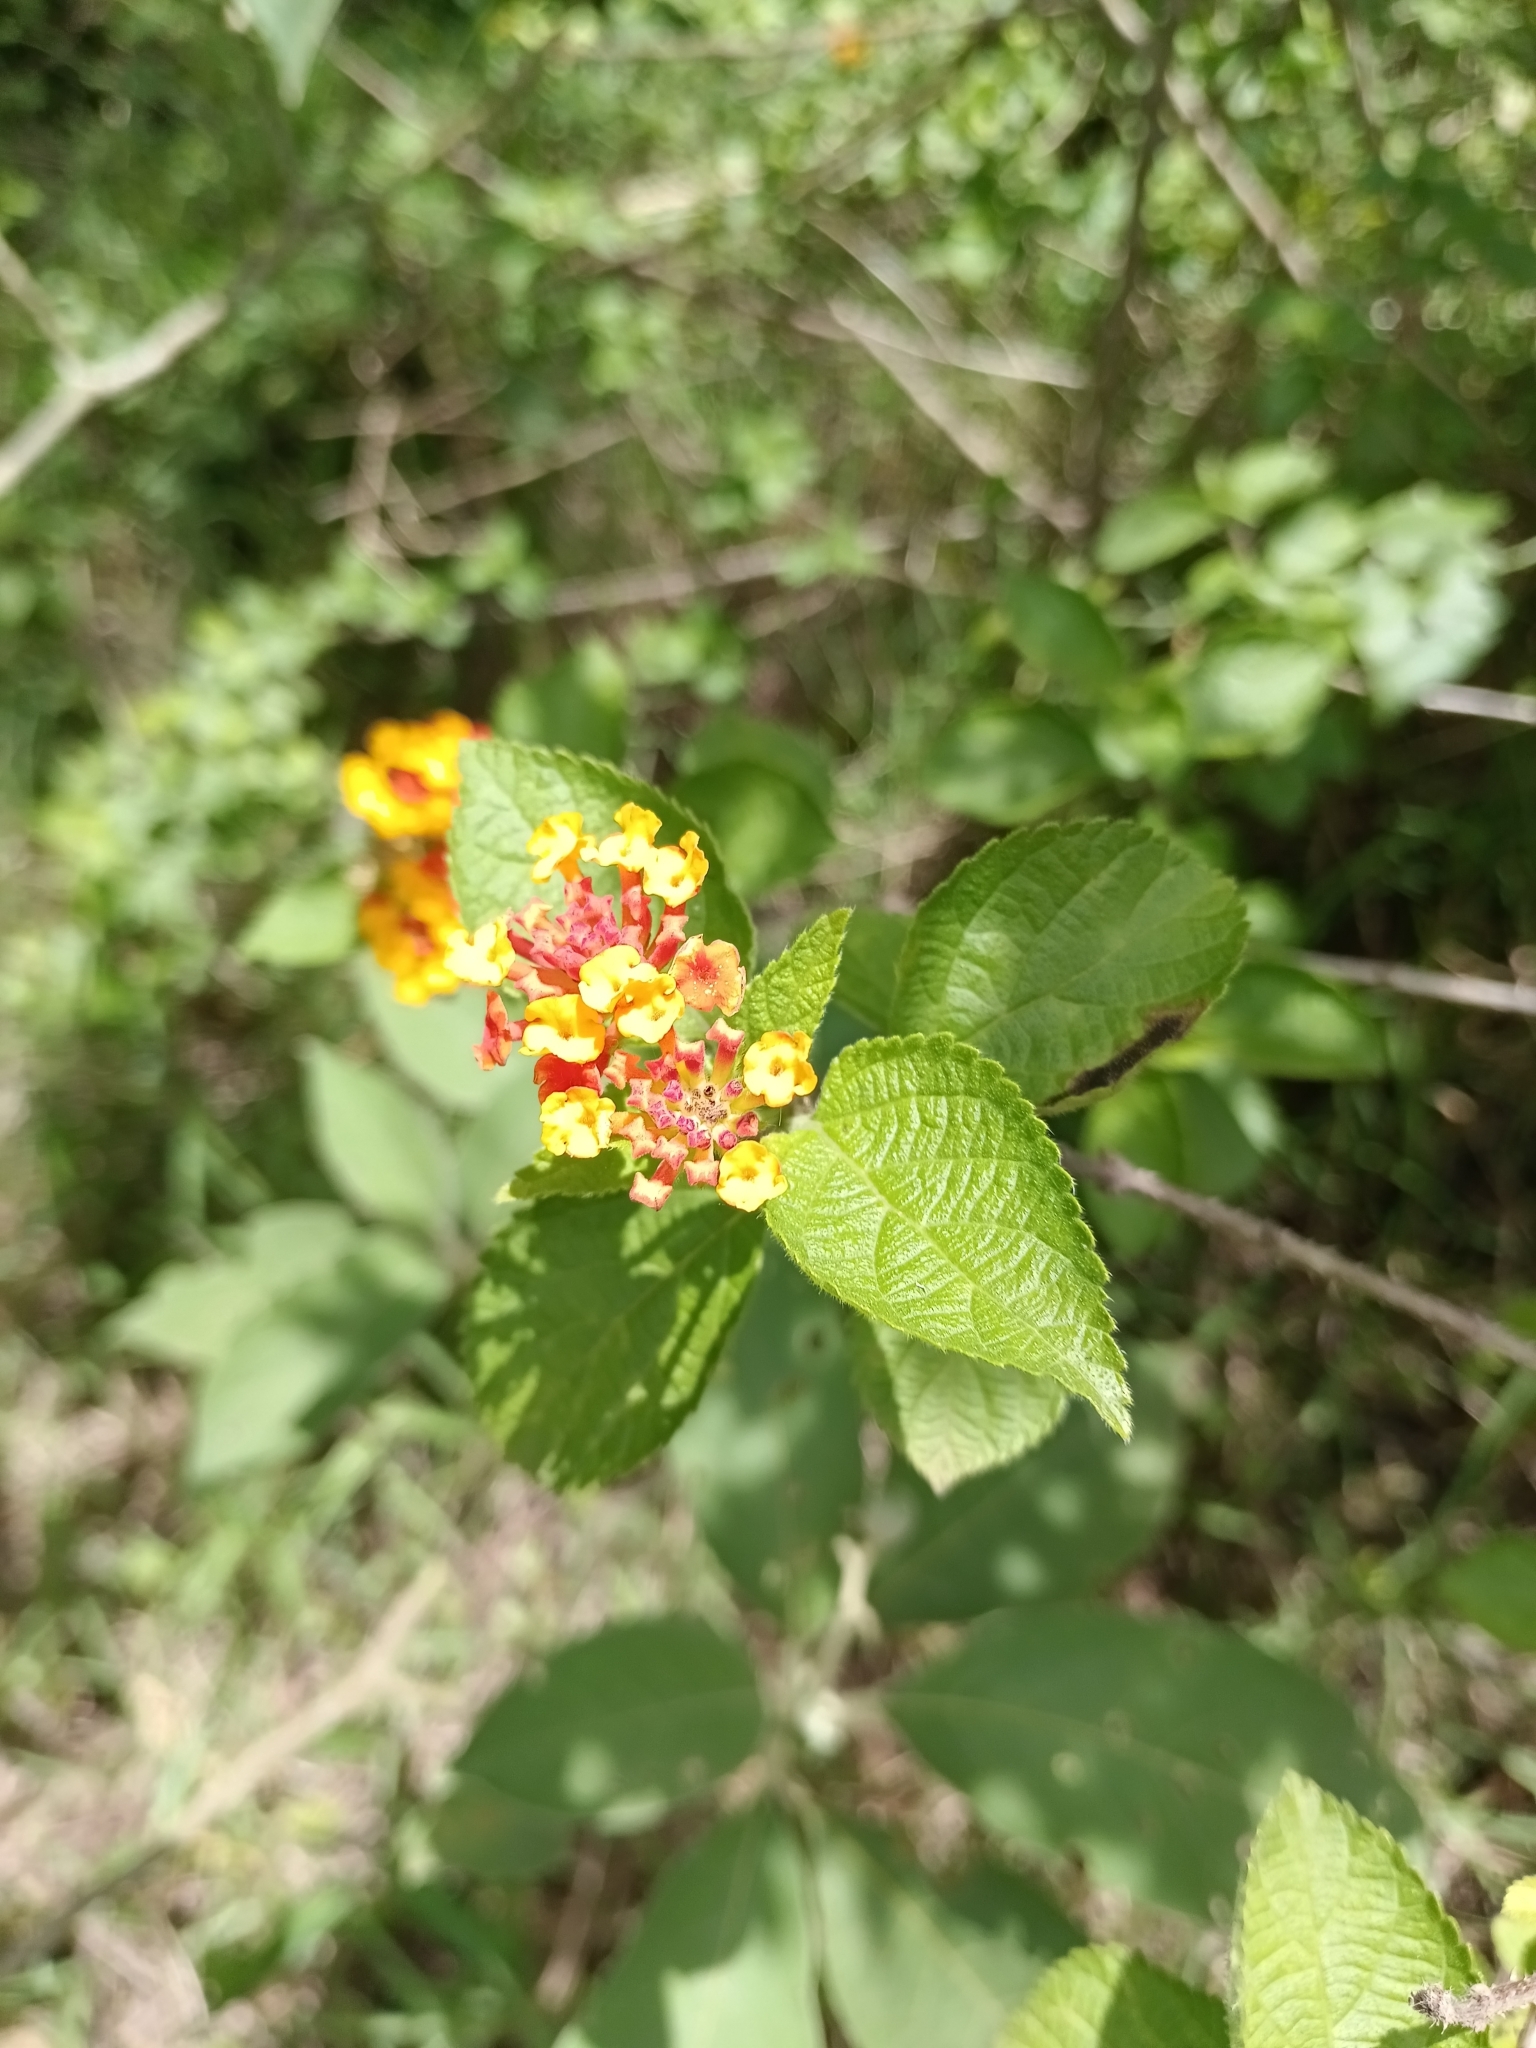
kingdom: Plantae
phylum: Tracheophyta
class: Magnoliopsida
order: Lamiales
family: Verbenaceae
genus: Lantana
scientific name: Lantana camara
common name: Lantana
